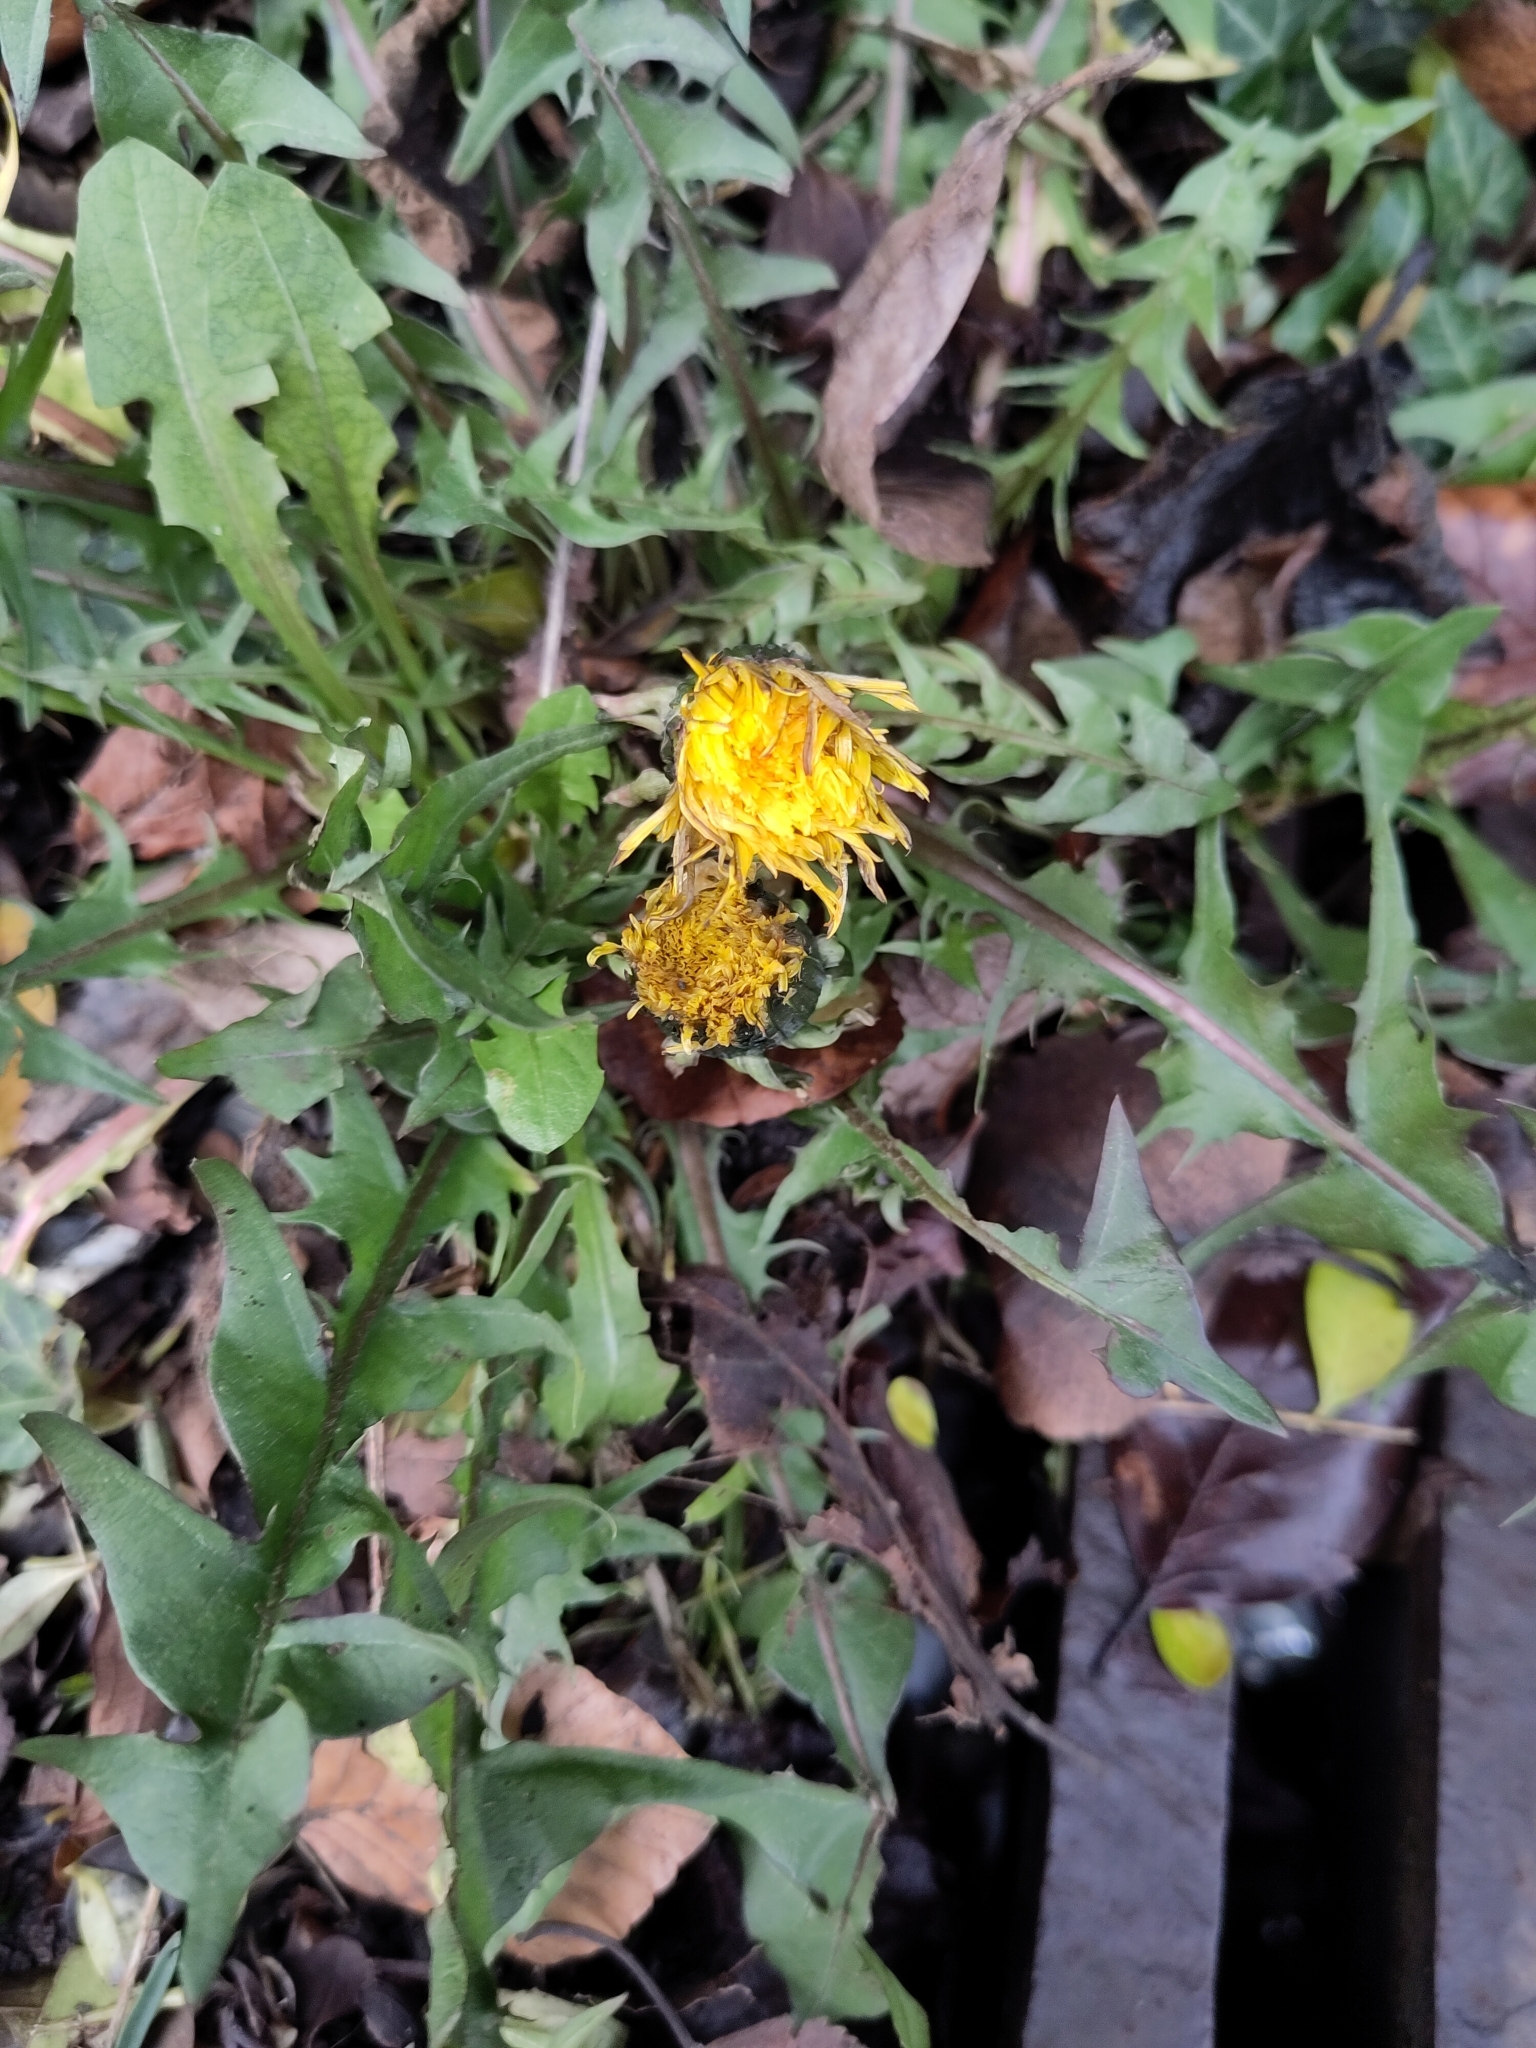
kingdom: Plantae
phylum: Tracheophyta
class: Magnoliopsida
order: Asterales
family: Asteraceae
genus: Taraxacum
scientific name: Taraxacum officinale
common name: Common dandelion
